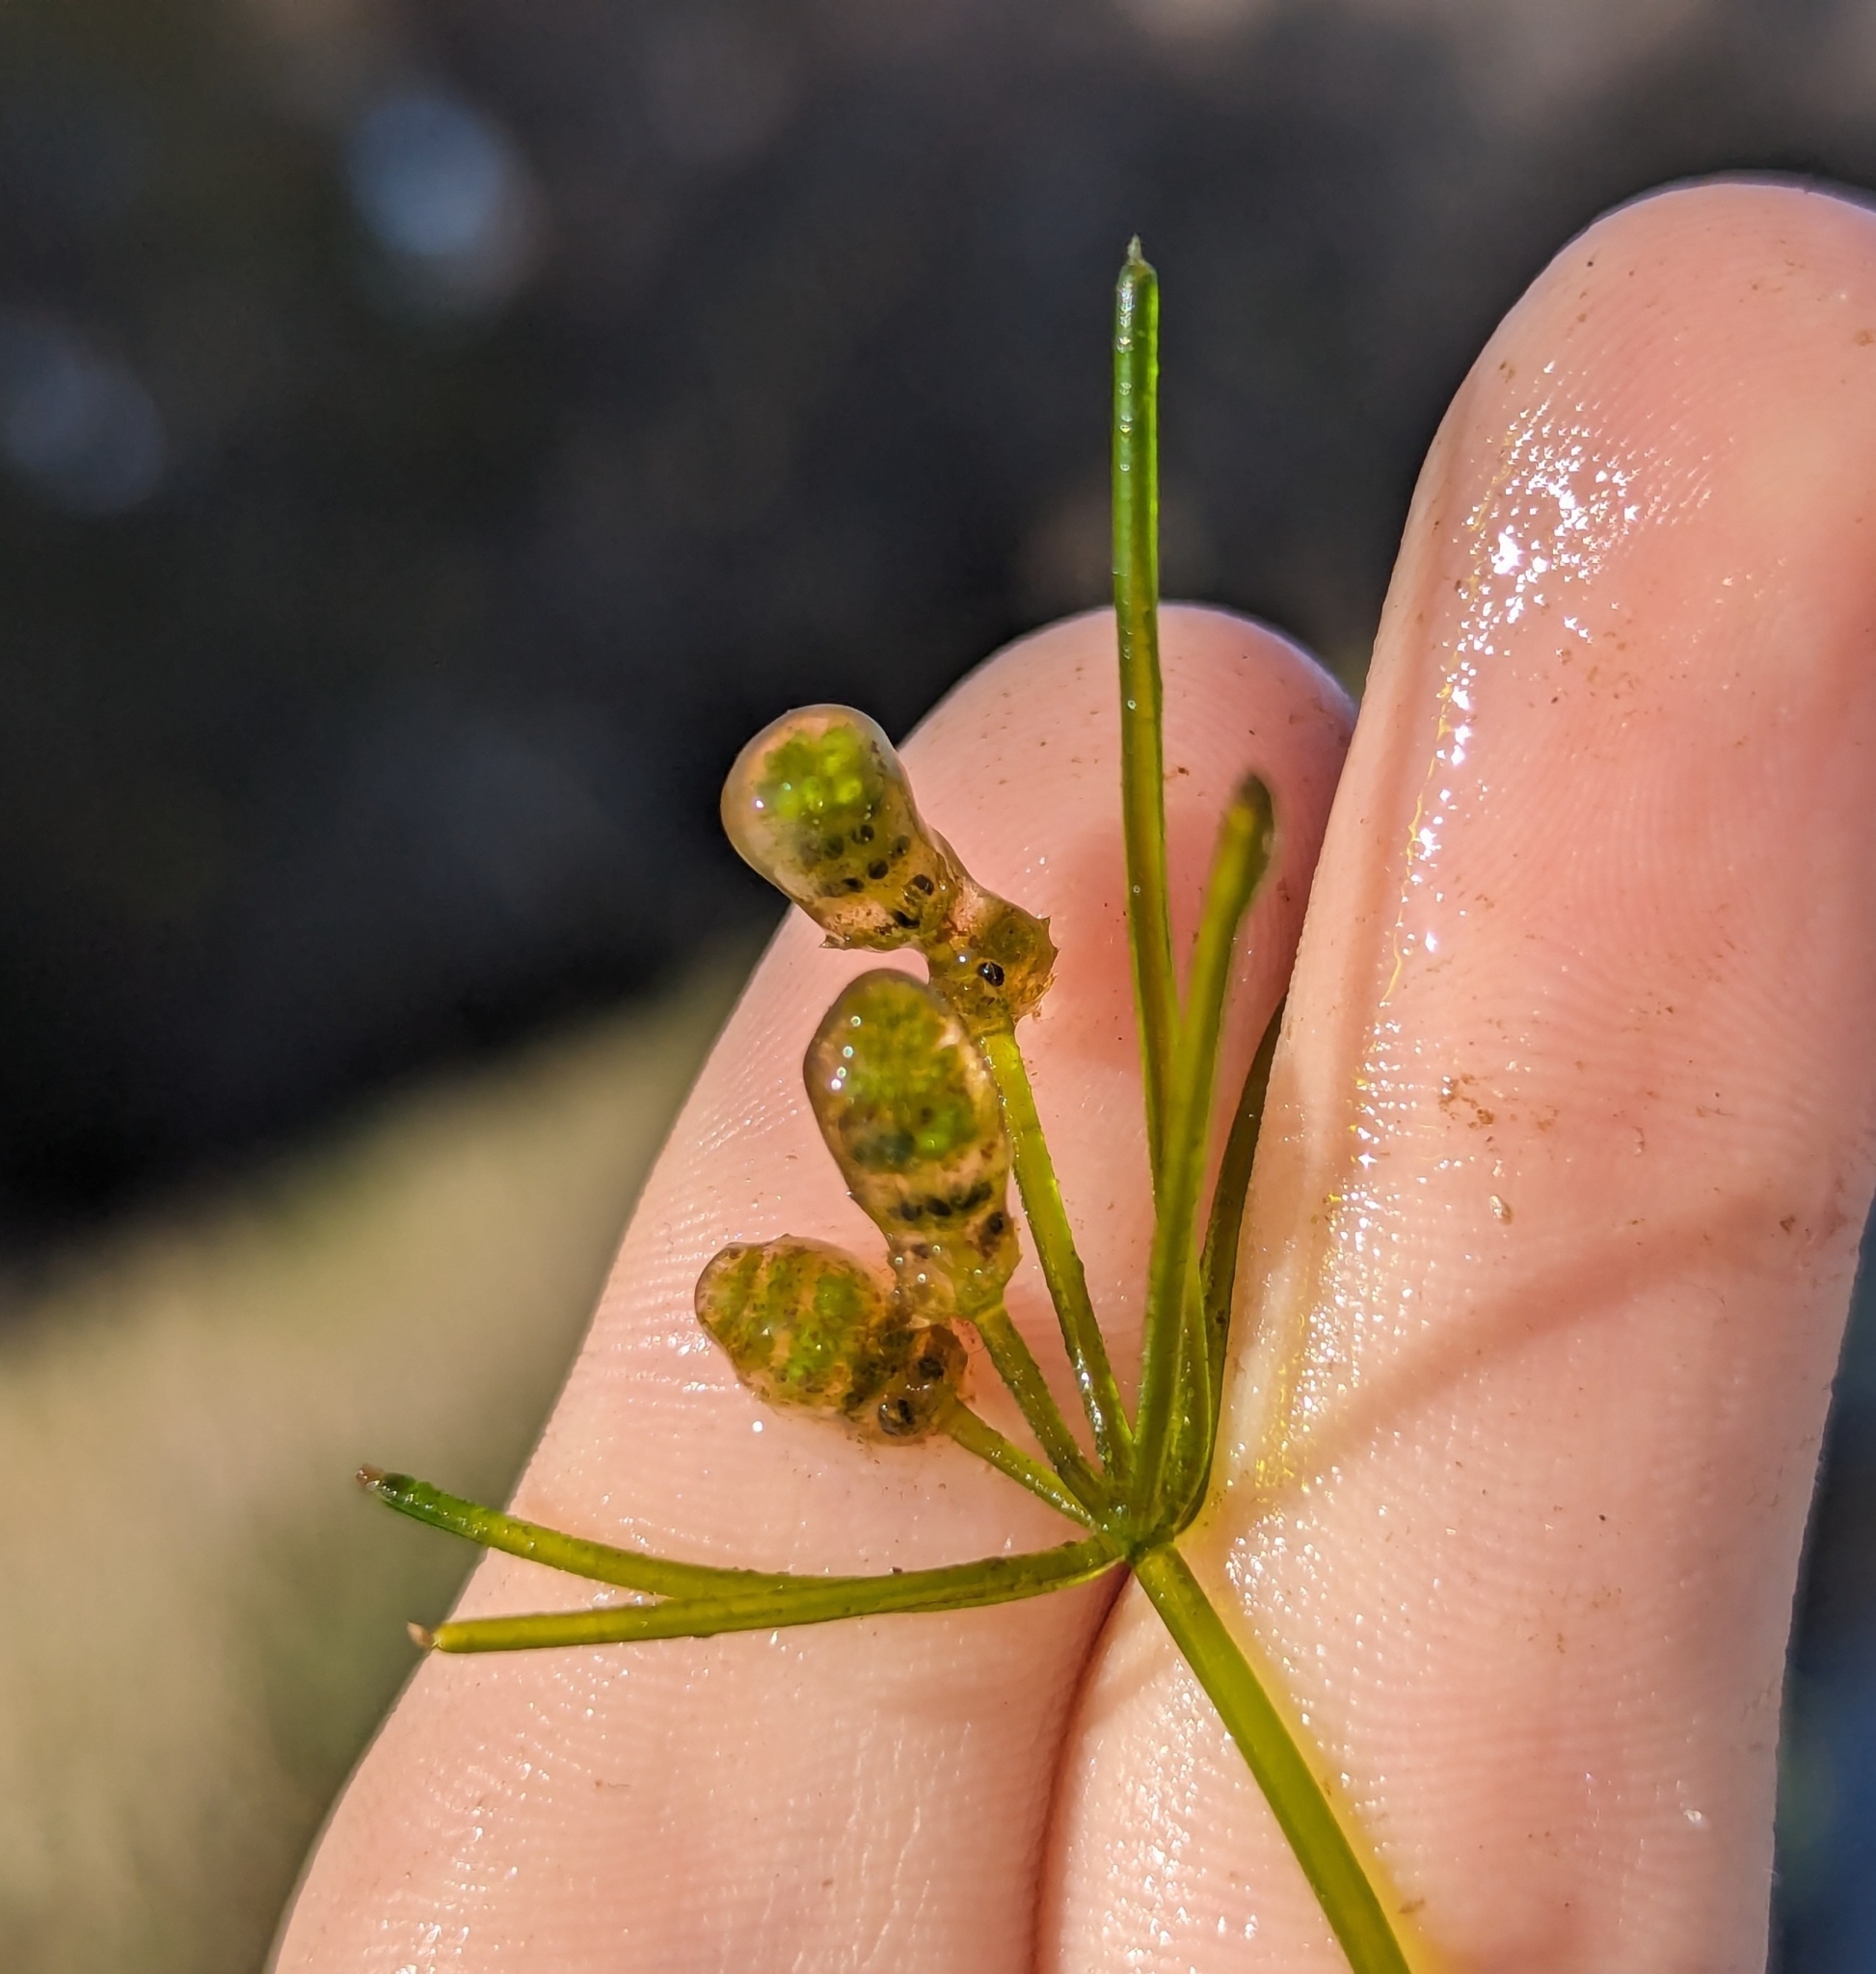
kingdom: Plantae
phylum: Charophyta
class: Charophyceae
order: Charales
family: Characeae
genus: Nitella
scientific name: Nitella praelonga
